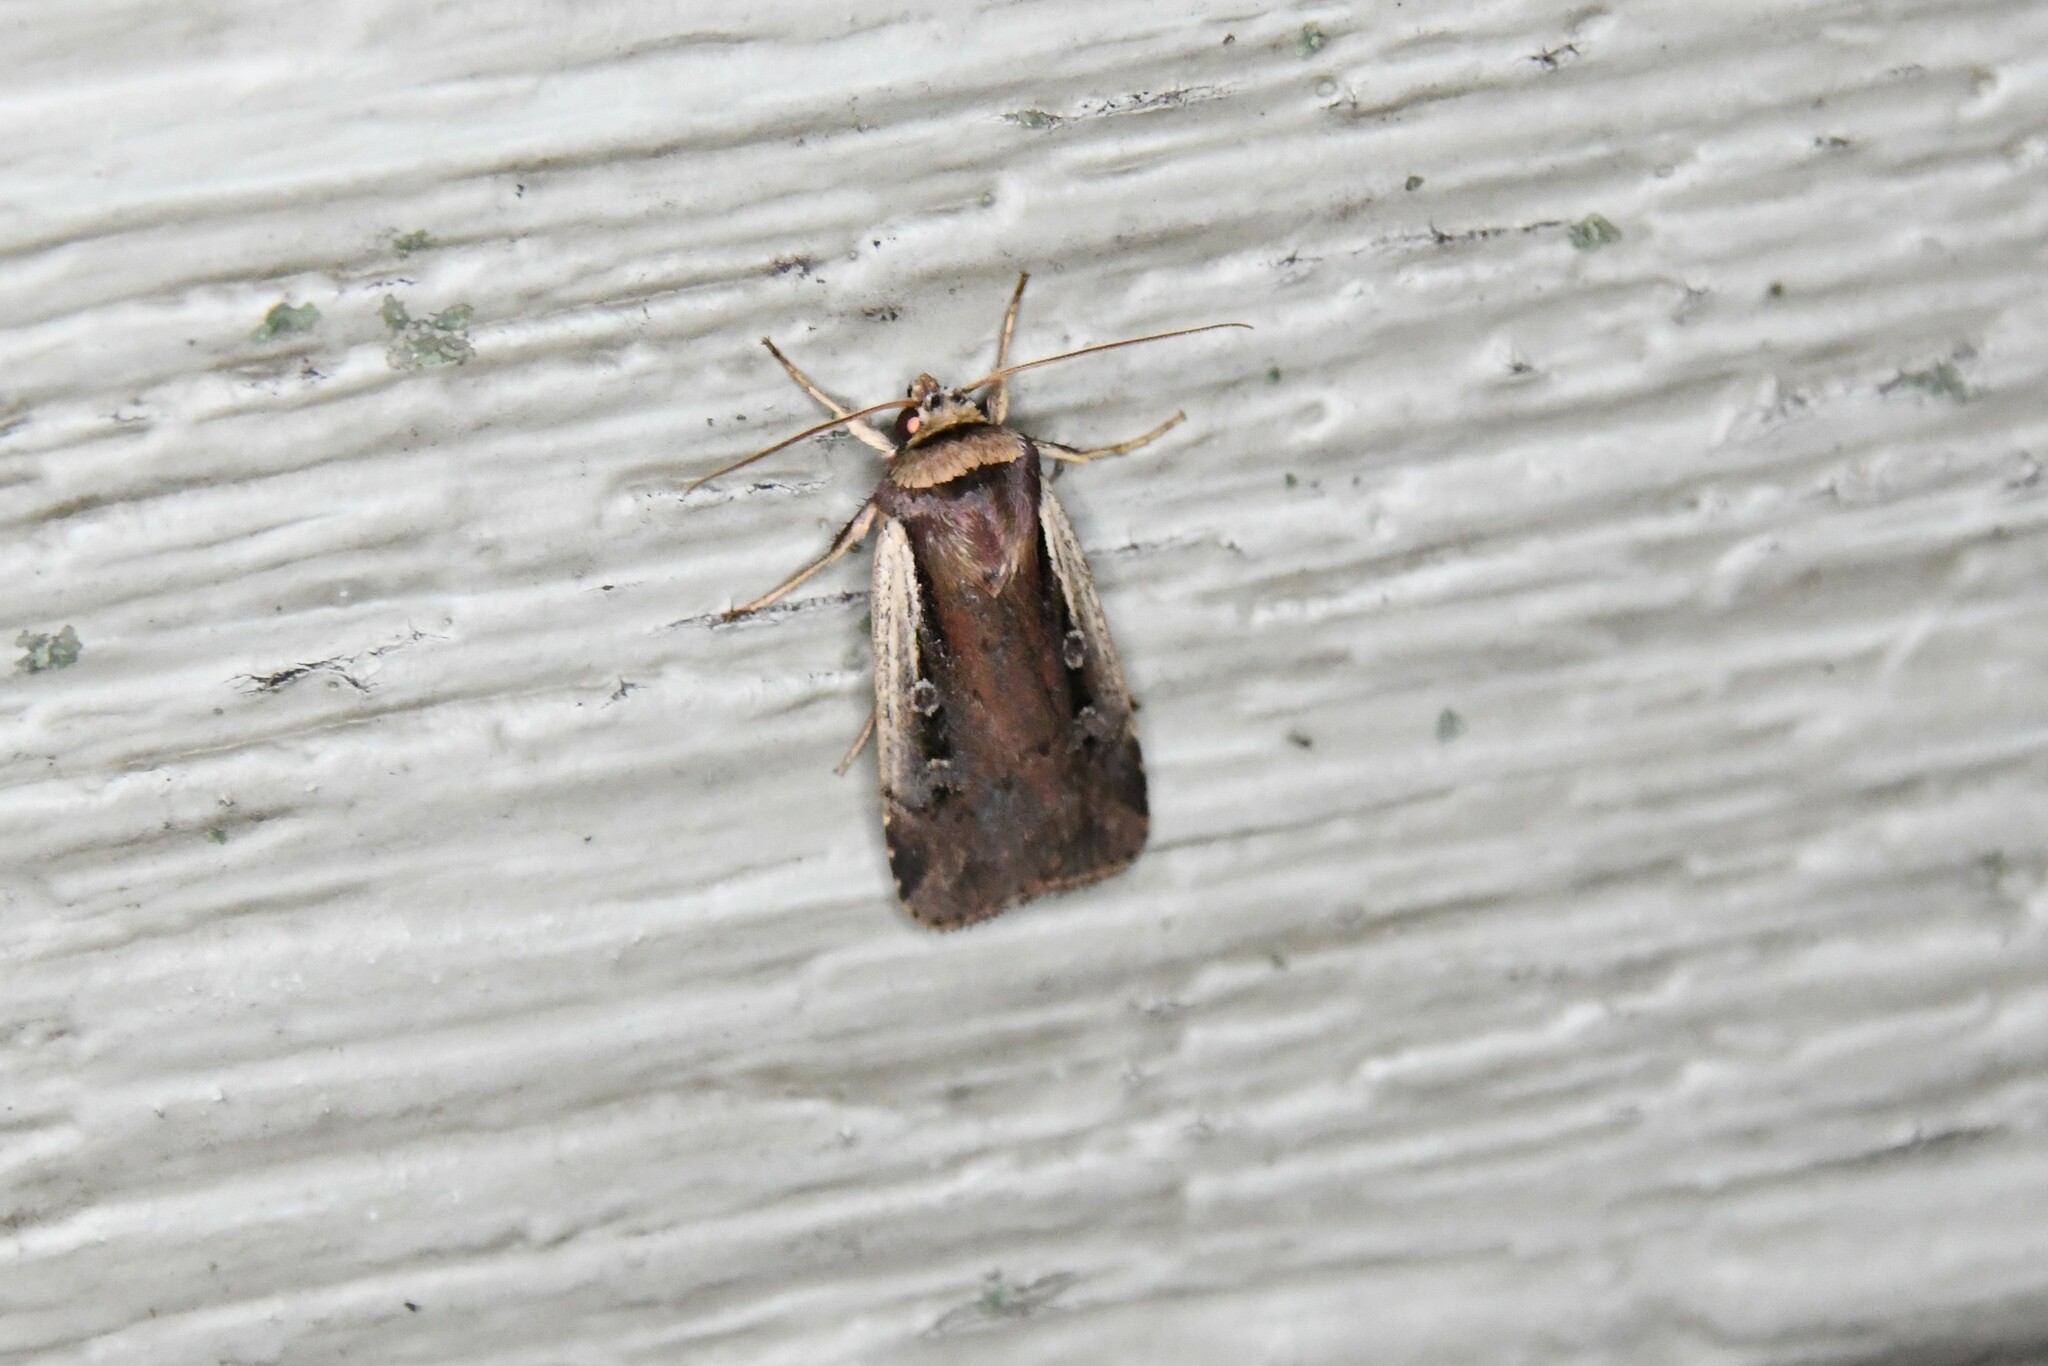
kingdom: Animalia
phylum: Arthropoda
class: Insecta
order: Lepidoptera
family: Noctuidae
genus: Ochropleura
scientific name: Ochropleura implecta
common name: Flame-shouldered dart
